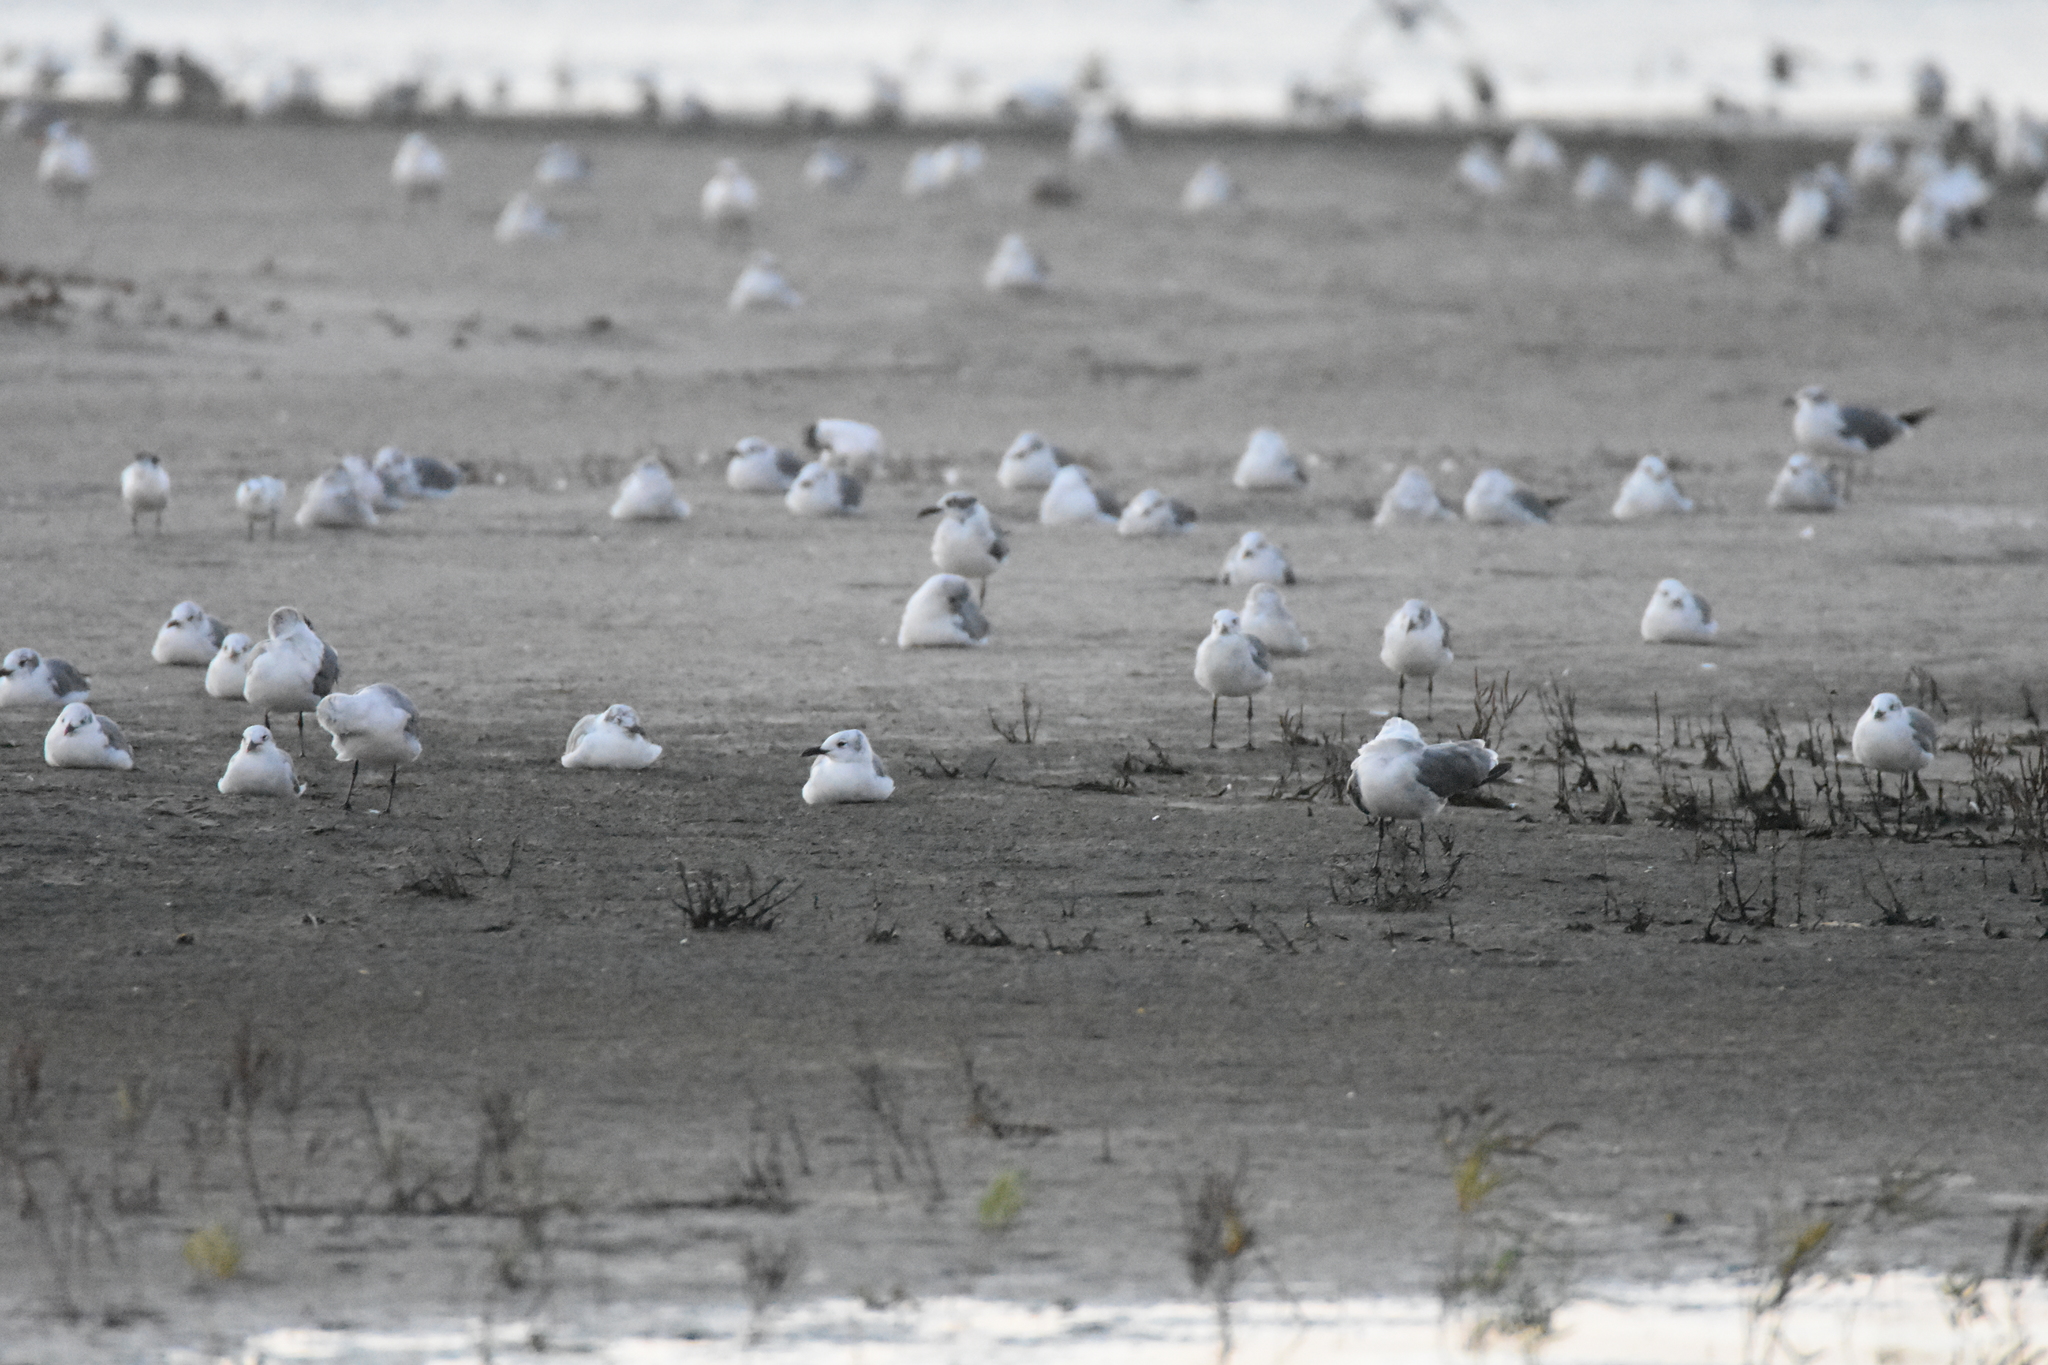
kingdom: Animalia
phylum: Chordata
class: Aves
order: Charadriiformes
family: Laridae
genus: Leucophaeus
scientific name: Leucophaeus atricilla
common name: Laughing gull
